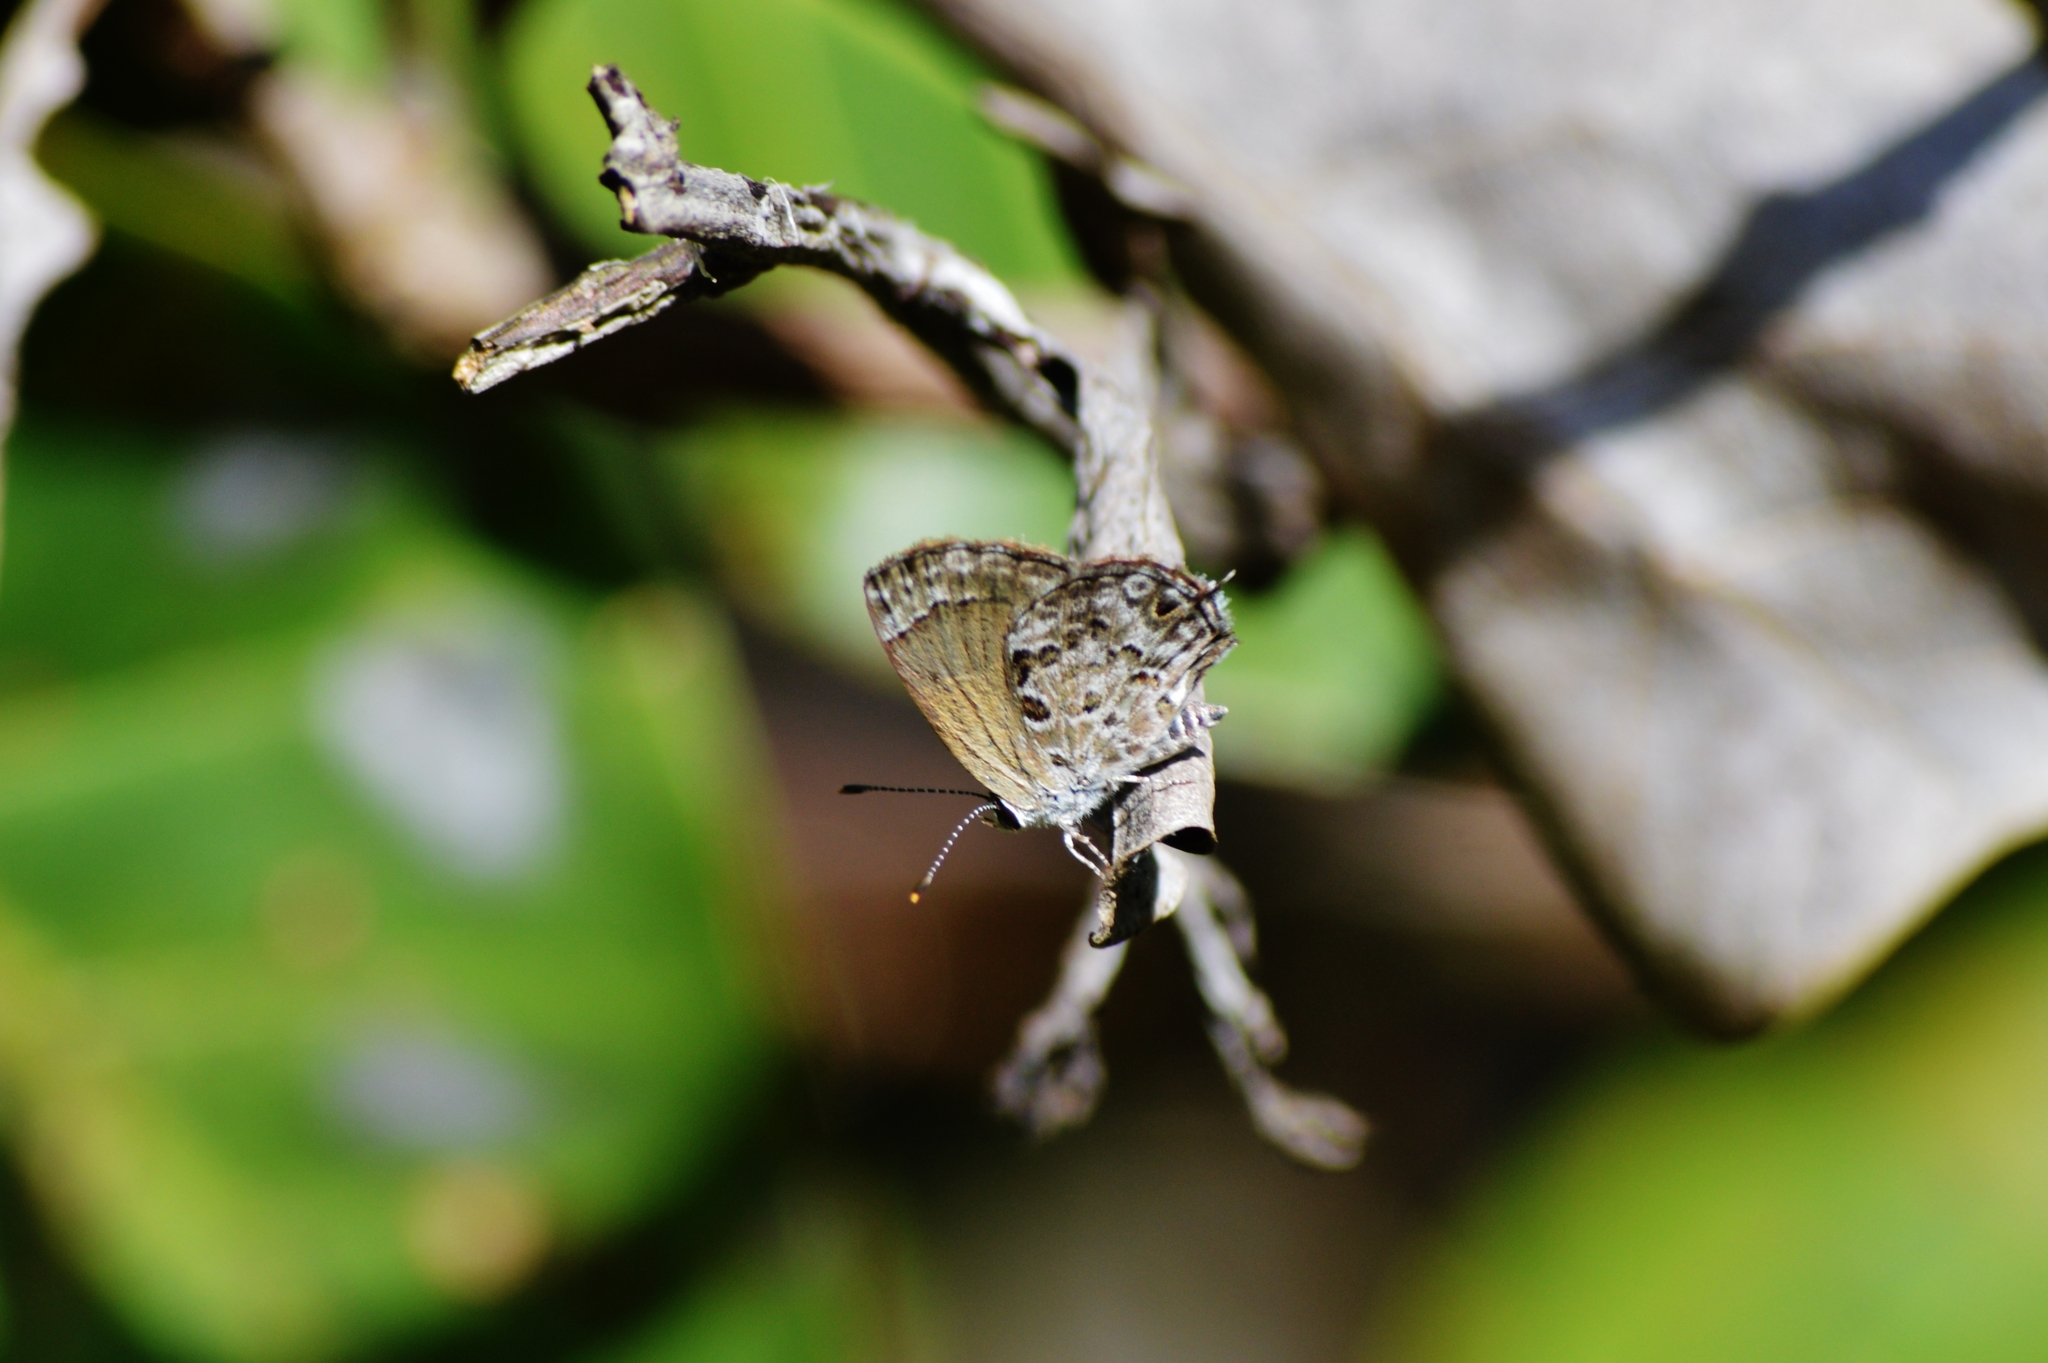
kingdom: Animalia
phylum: Arthropoda
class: Insecta
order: Lepidoptera
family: Lycaenidae
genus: Strymon
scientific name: Strymon astiocha
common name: Gray-spotted scrub-hairstreak
